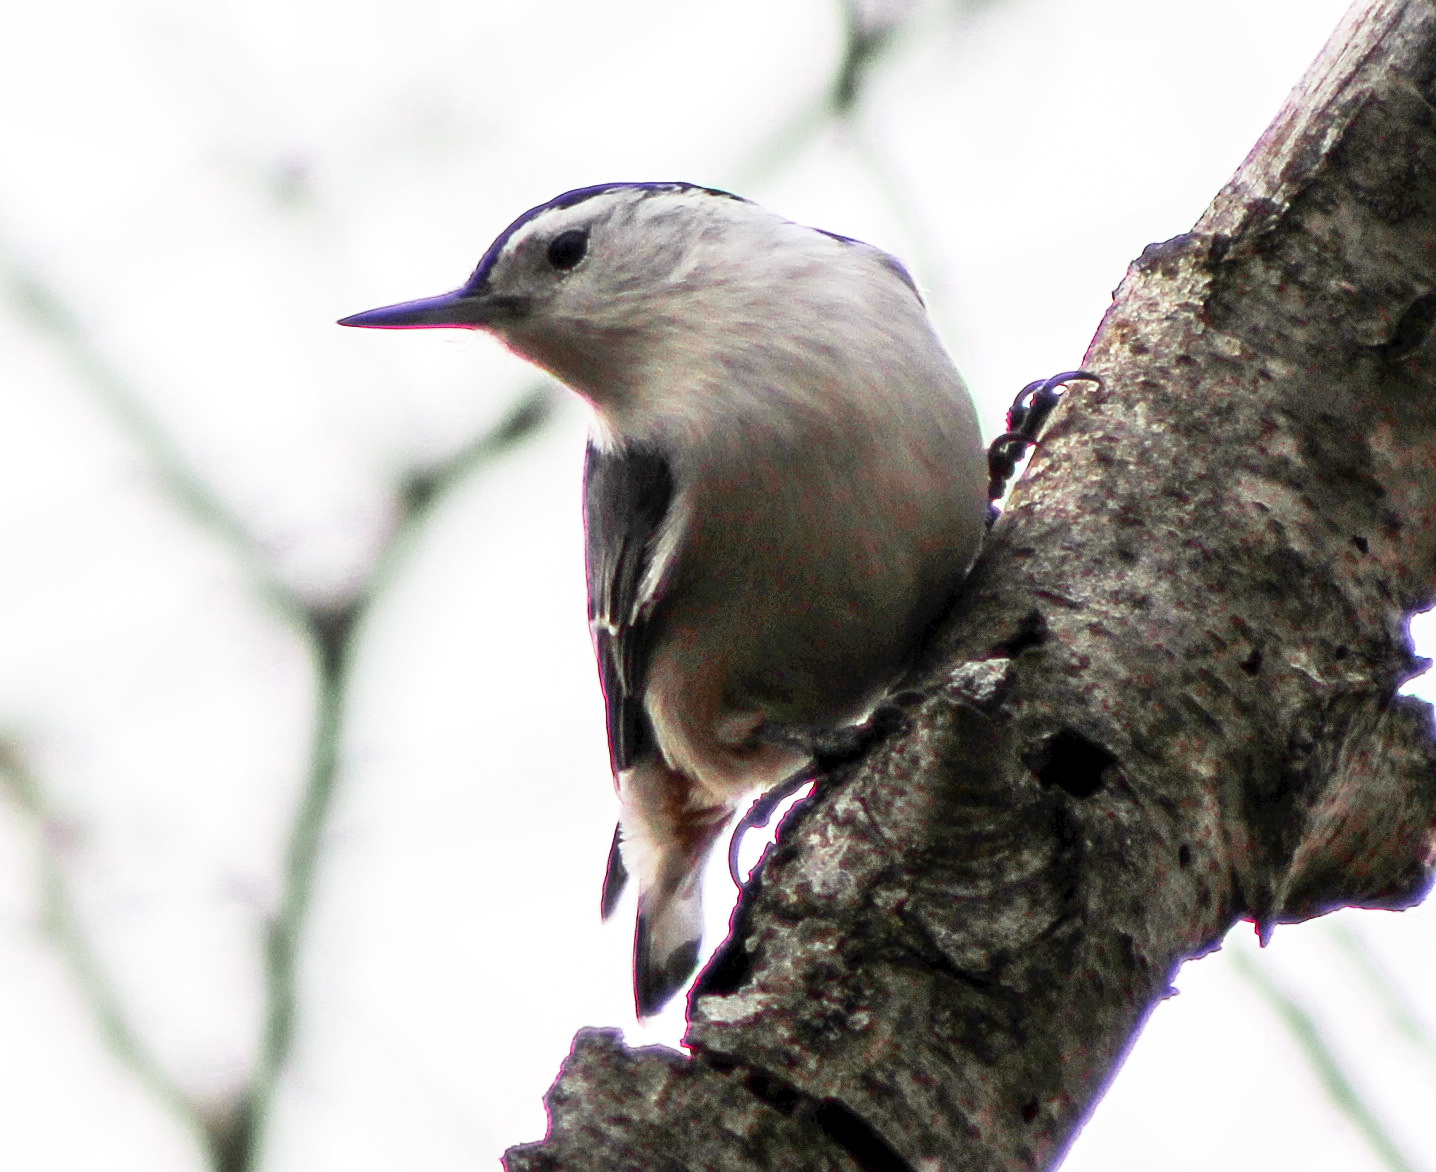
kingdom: Animalia
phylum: Chordata
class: Aves
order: Passeriformes
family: Sittidae
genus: Sitta
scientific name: Sitta carolinensis
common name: White-breasted nuthatch
